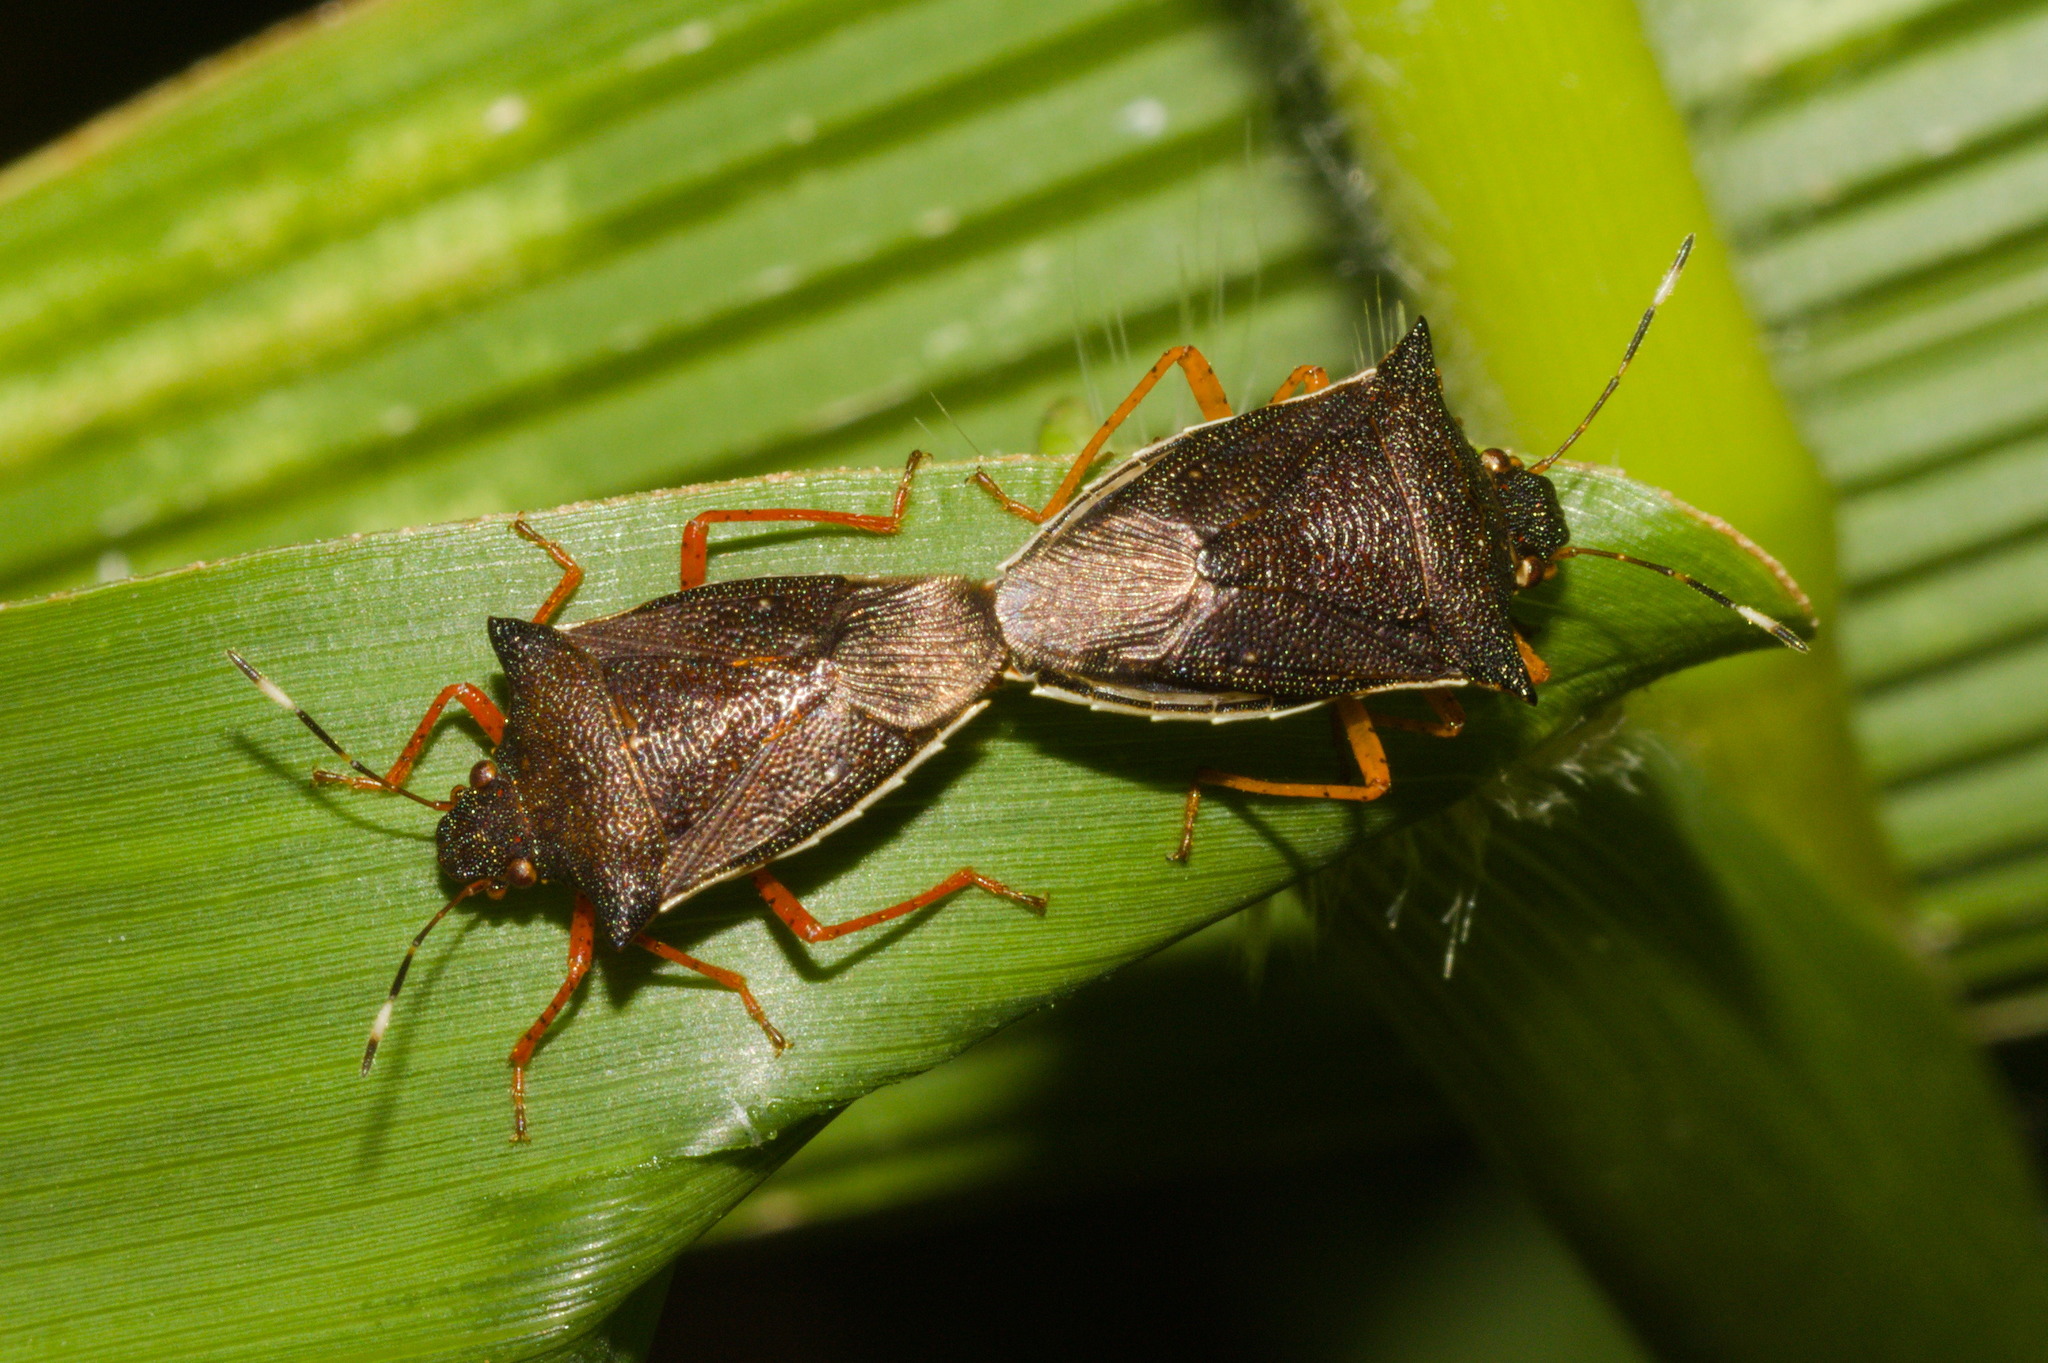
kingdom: Animalia
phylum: Arthropoda
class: Insecta
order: Hemiptera
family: Pentatomidae
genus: Mormidea
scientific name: Mormidea
